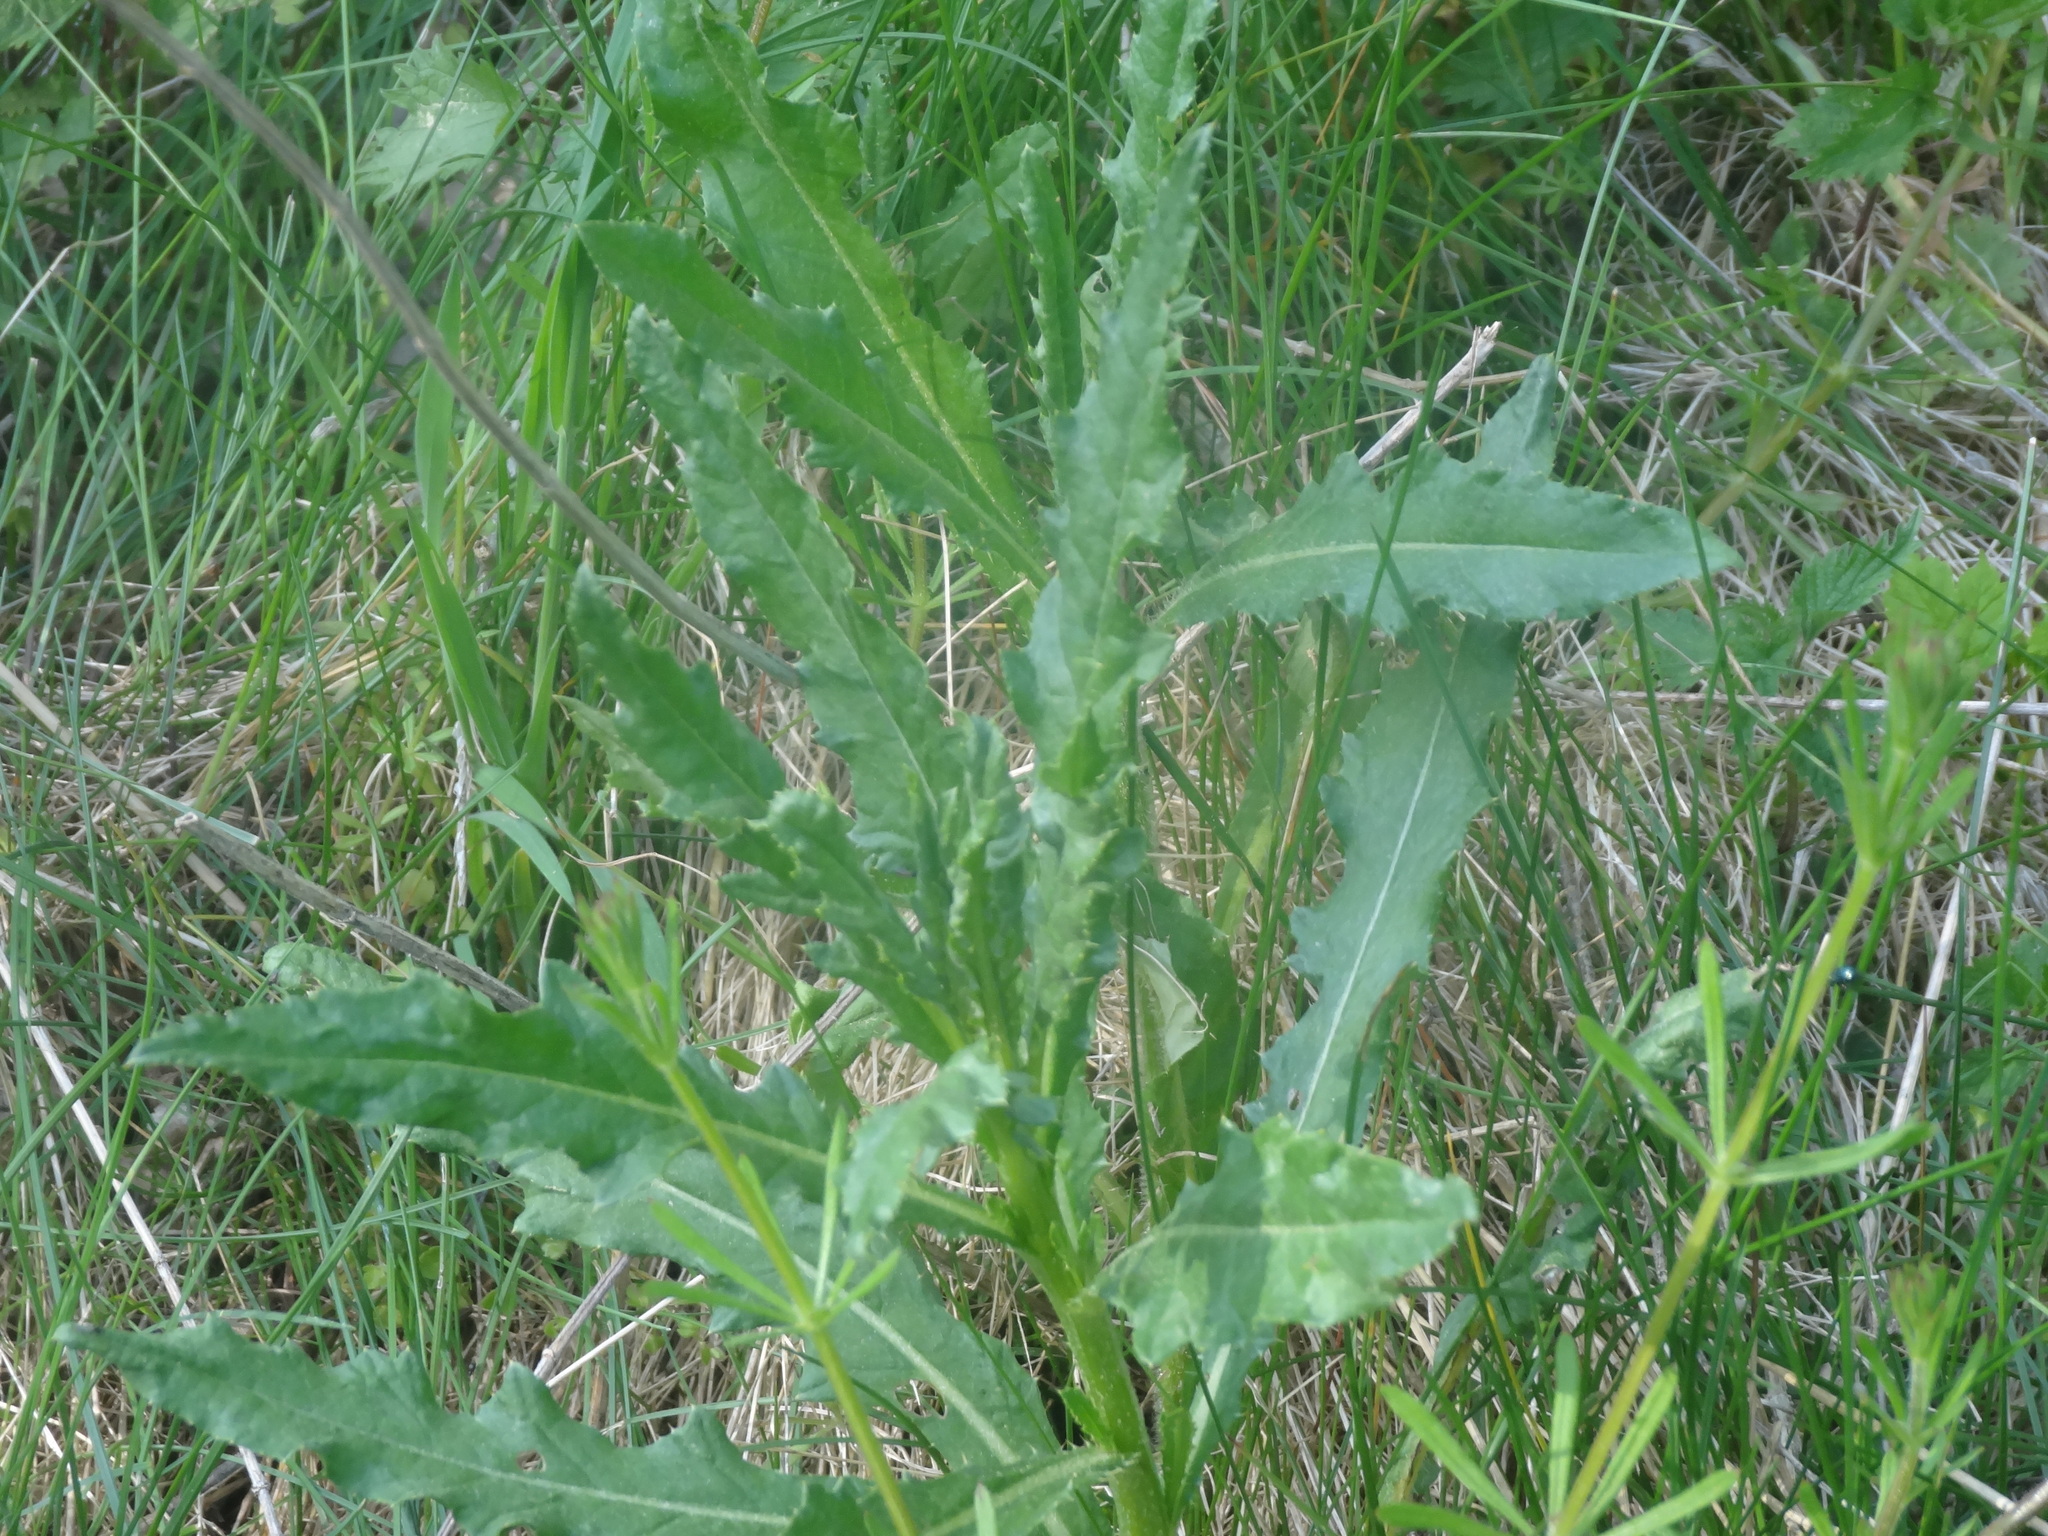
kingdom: Plantae
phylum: Tracheophyta
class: Magnoliopsida
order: Asterales
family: Asteraceae
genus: Cirsium
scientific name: Cirsium arvense
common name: Creeping thistle
